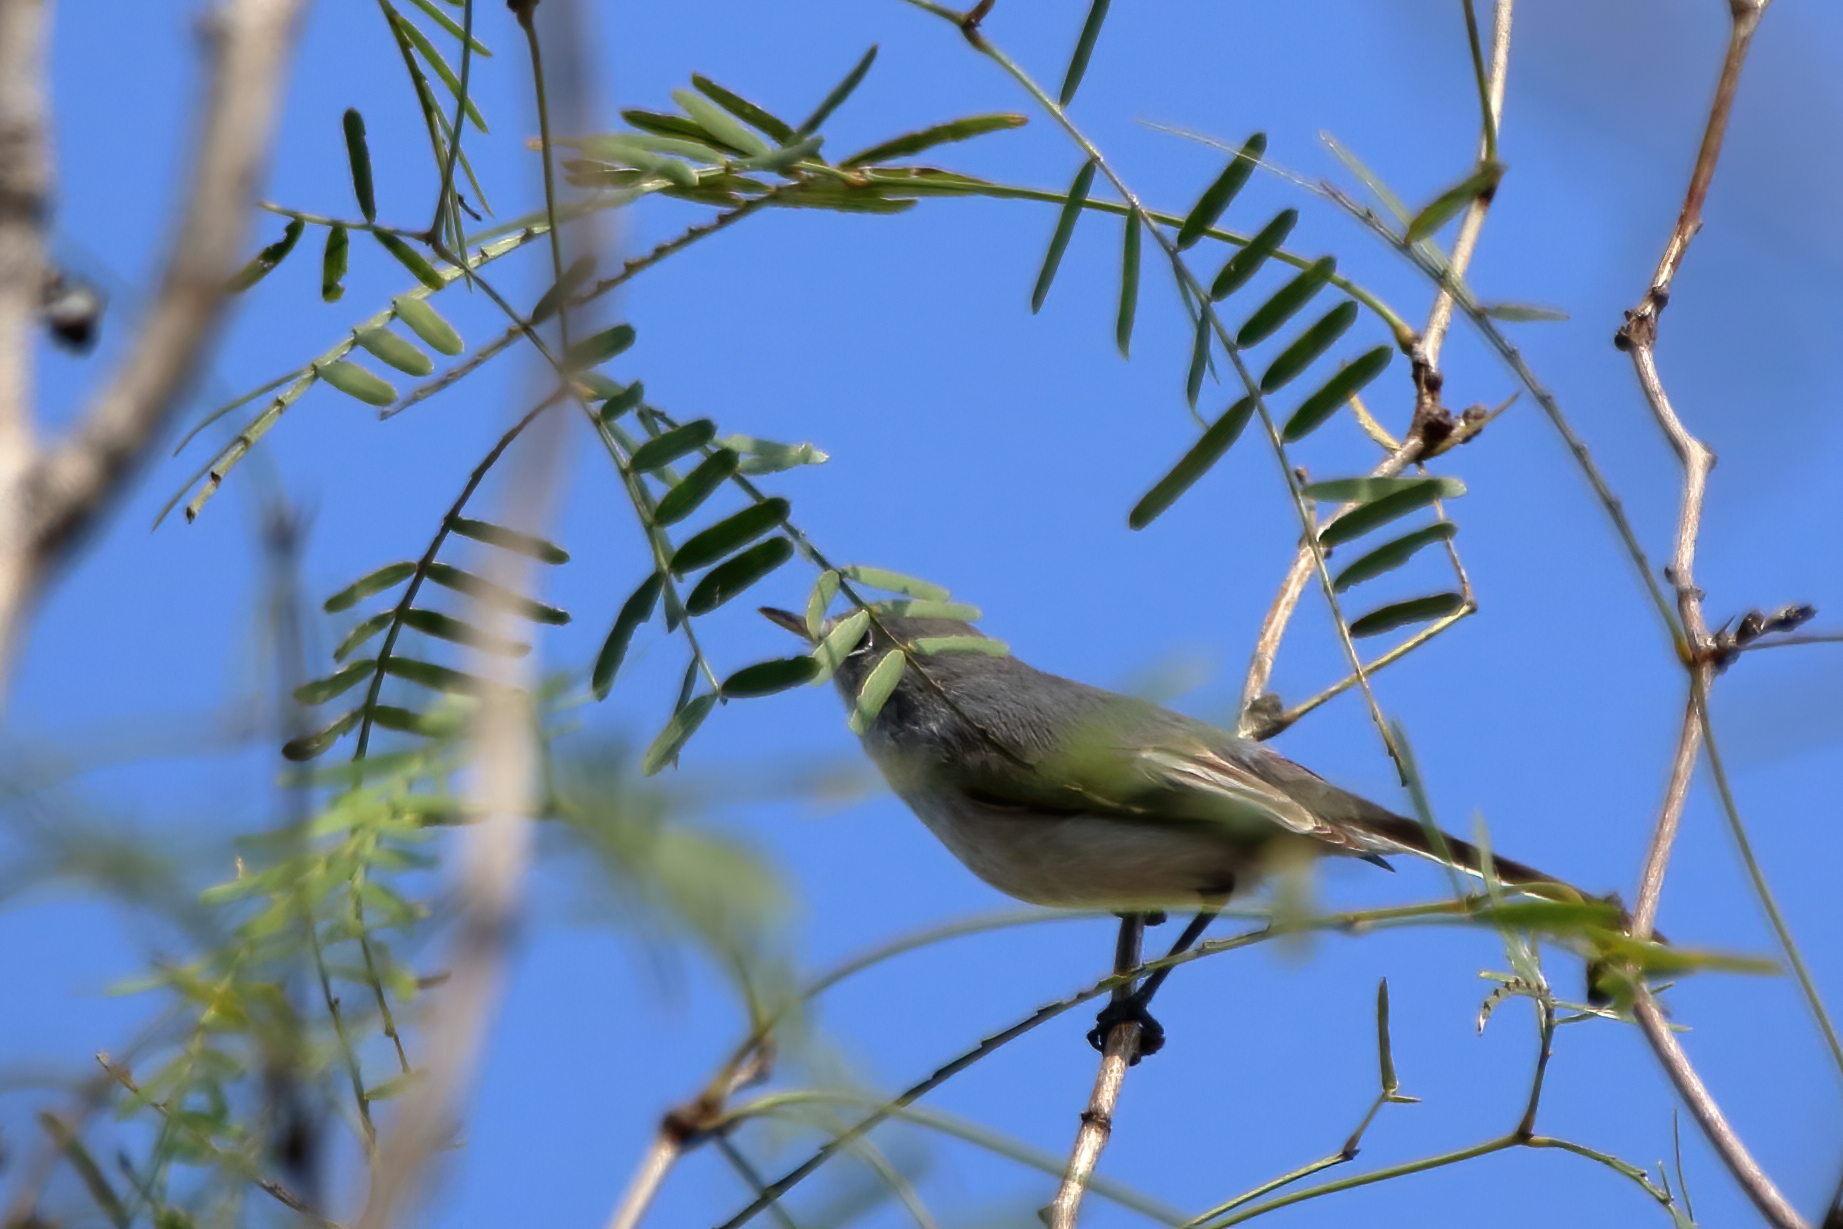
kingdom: Animalia
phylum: Chordata
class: Aves
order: Passeriformes
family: Polioptilidae
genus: Polioptila
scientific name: Polioptila caerulea
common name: Blue-gray gnatcatcher
